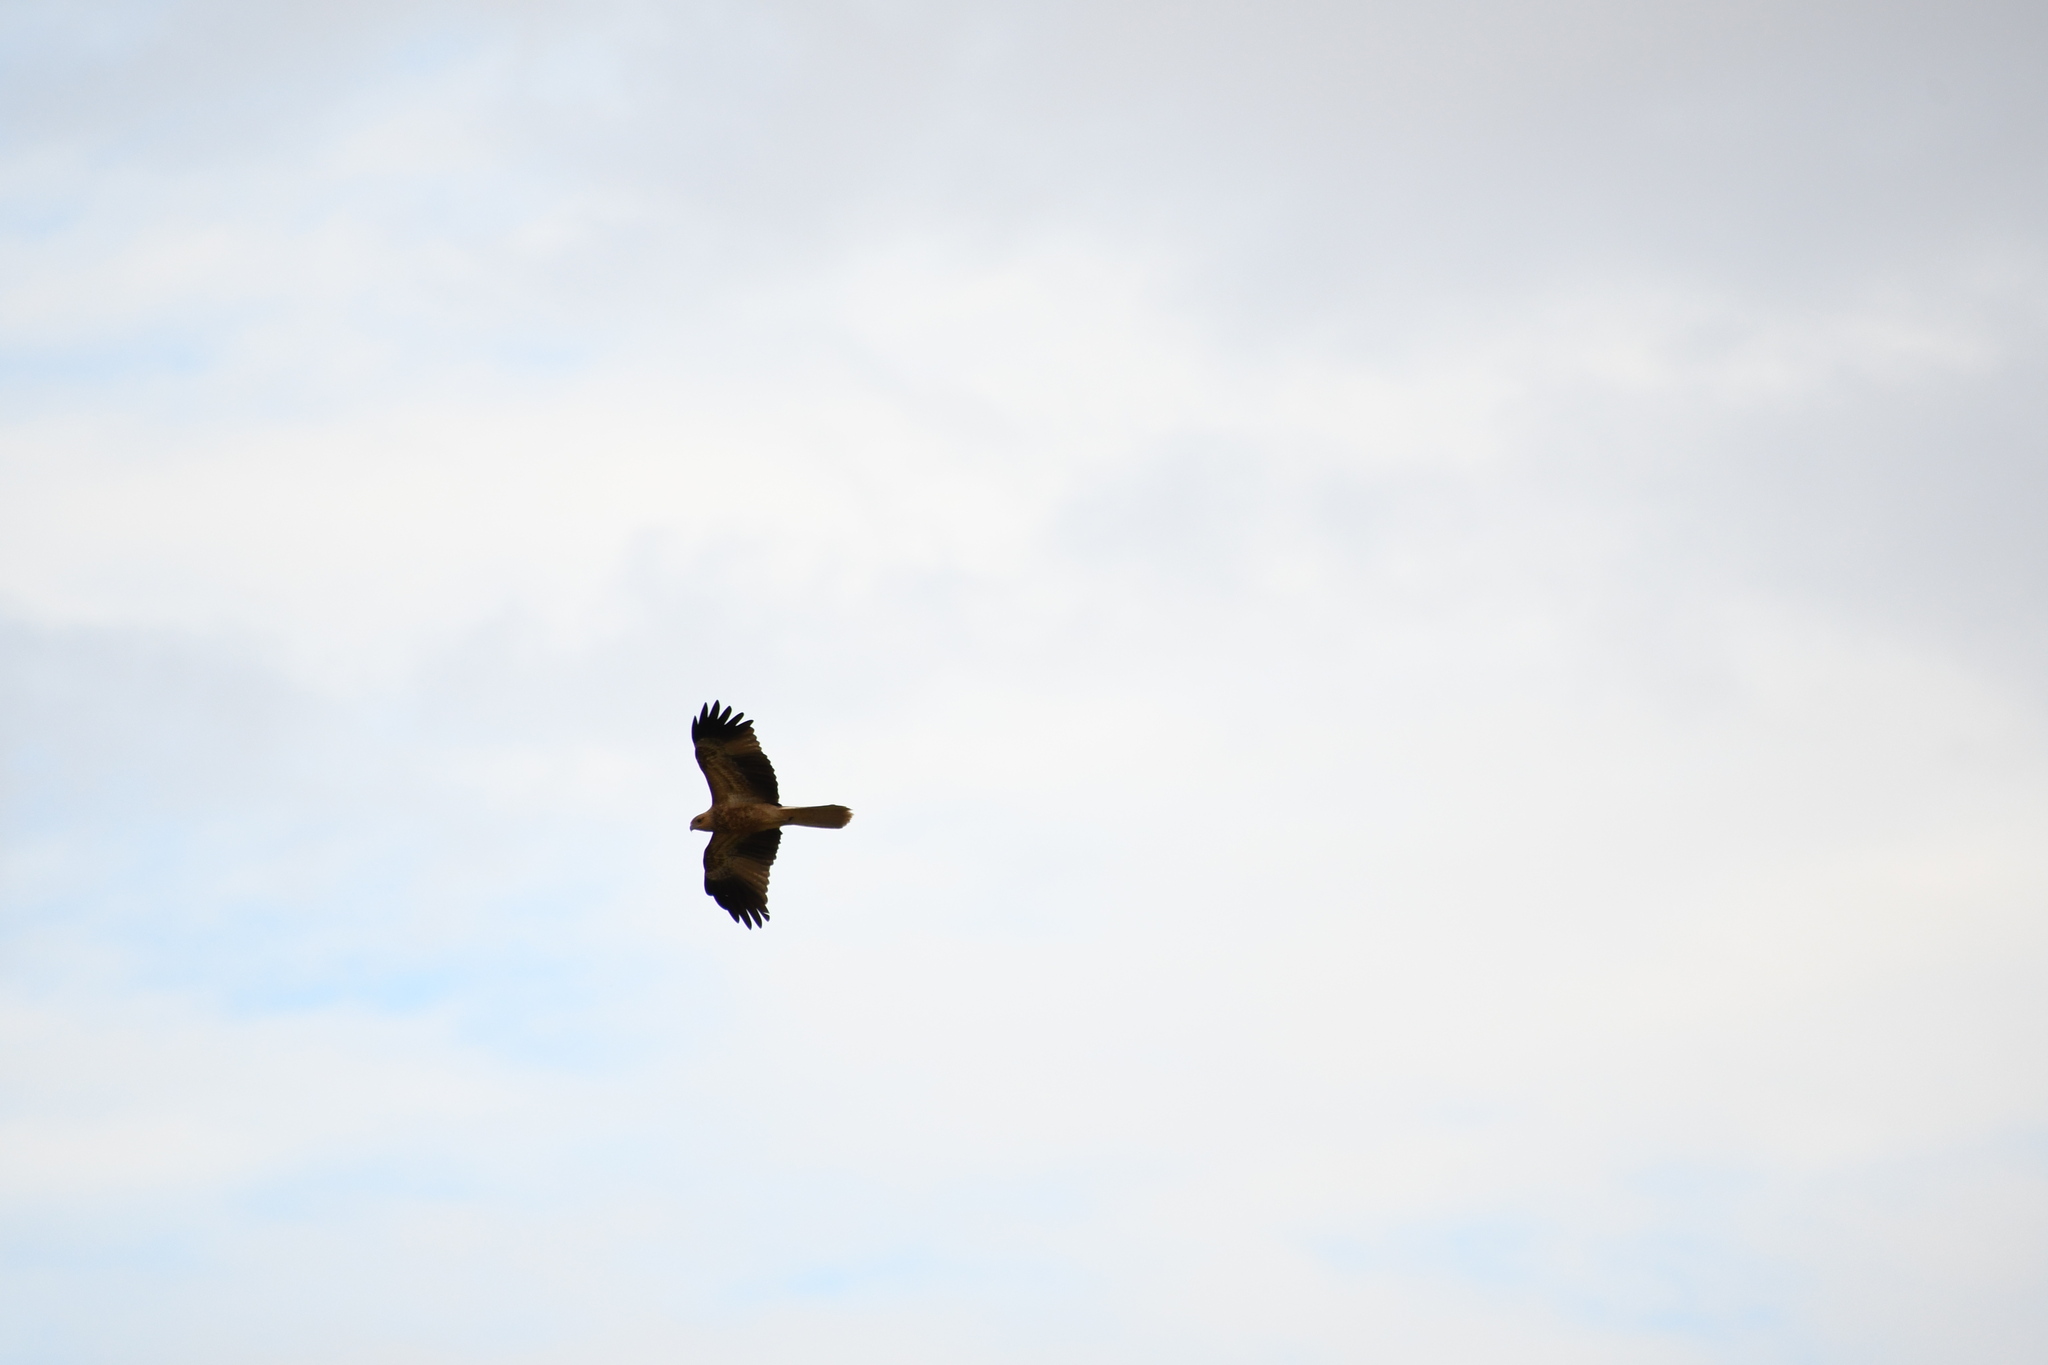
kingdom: Animalia
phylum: Chordata
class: Aves
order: Accipitriformes
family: Accipitridae
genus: Haliastur
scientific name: Haliastur sphenurus
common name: Whistling kite
